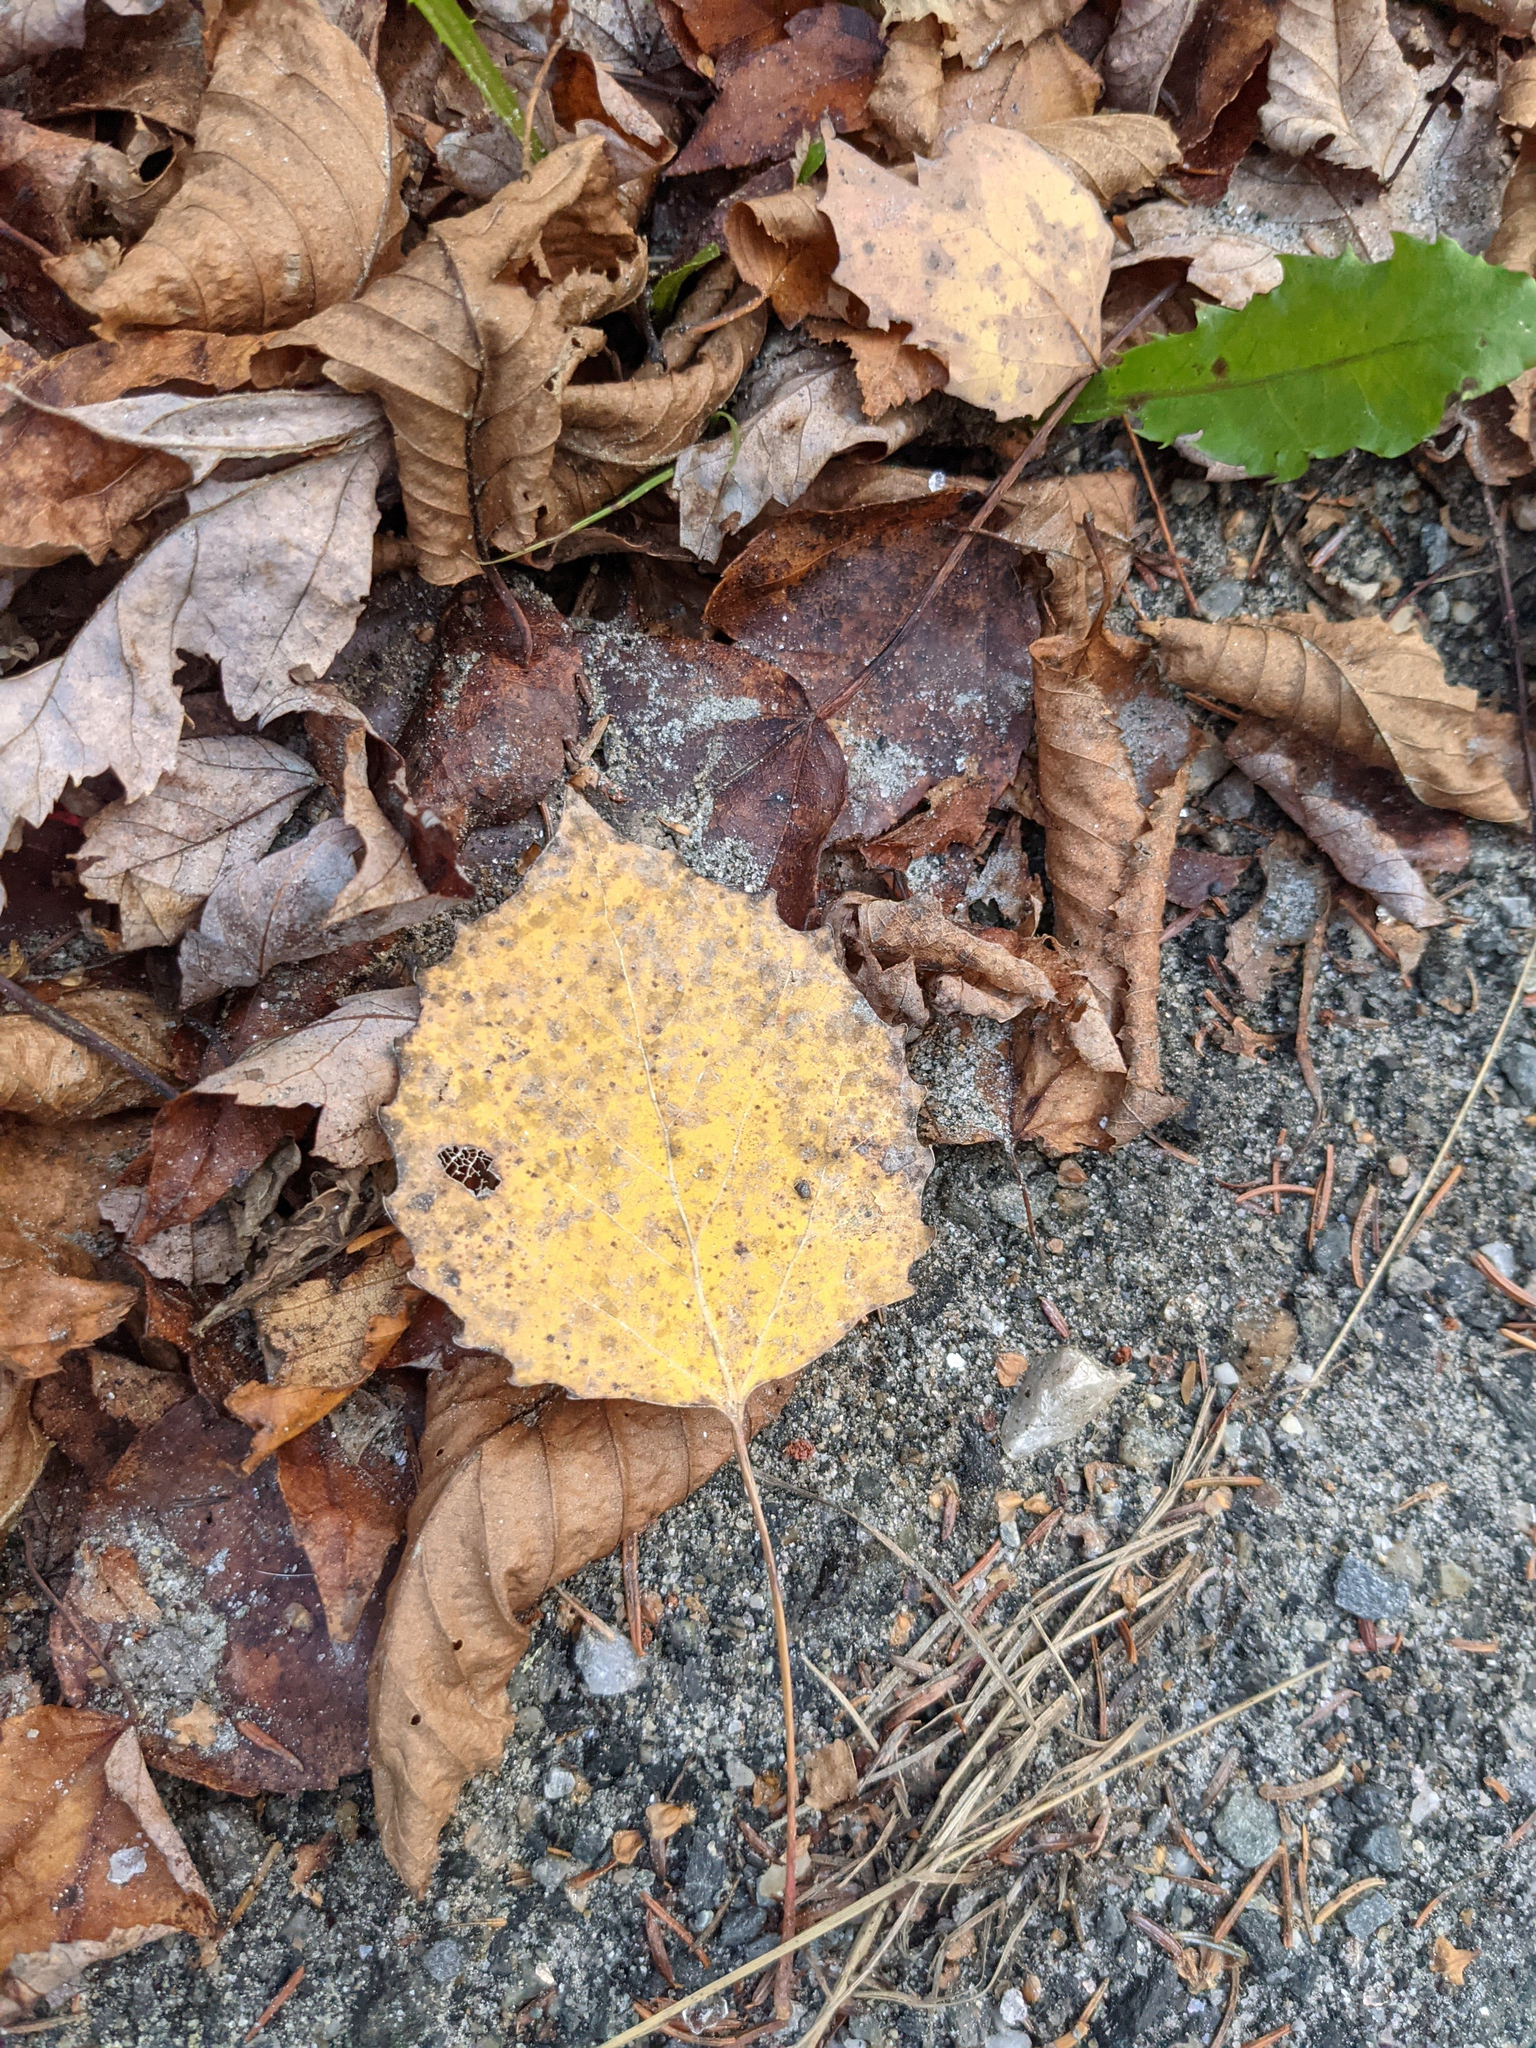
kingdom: Plantae
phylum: Tracheophyta
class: Magnoliopsida
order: Malpighiales
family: Salicaceae
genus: Populus
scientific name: Populus grandidentata
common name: Bigtooth aspen
